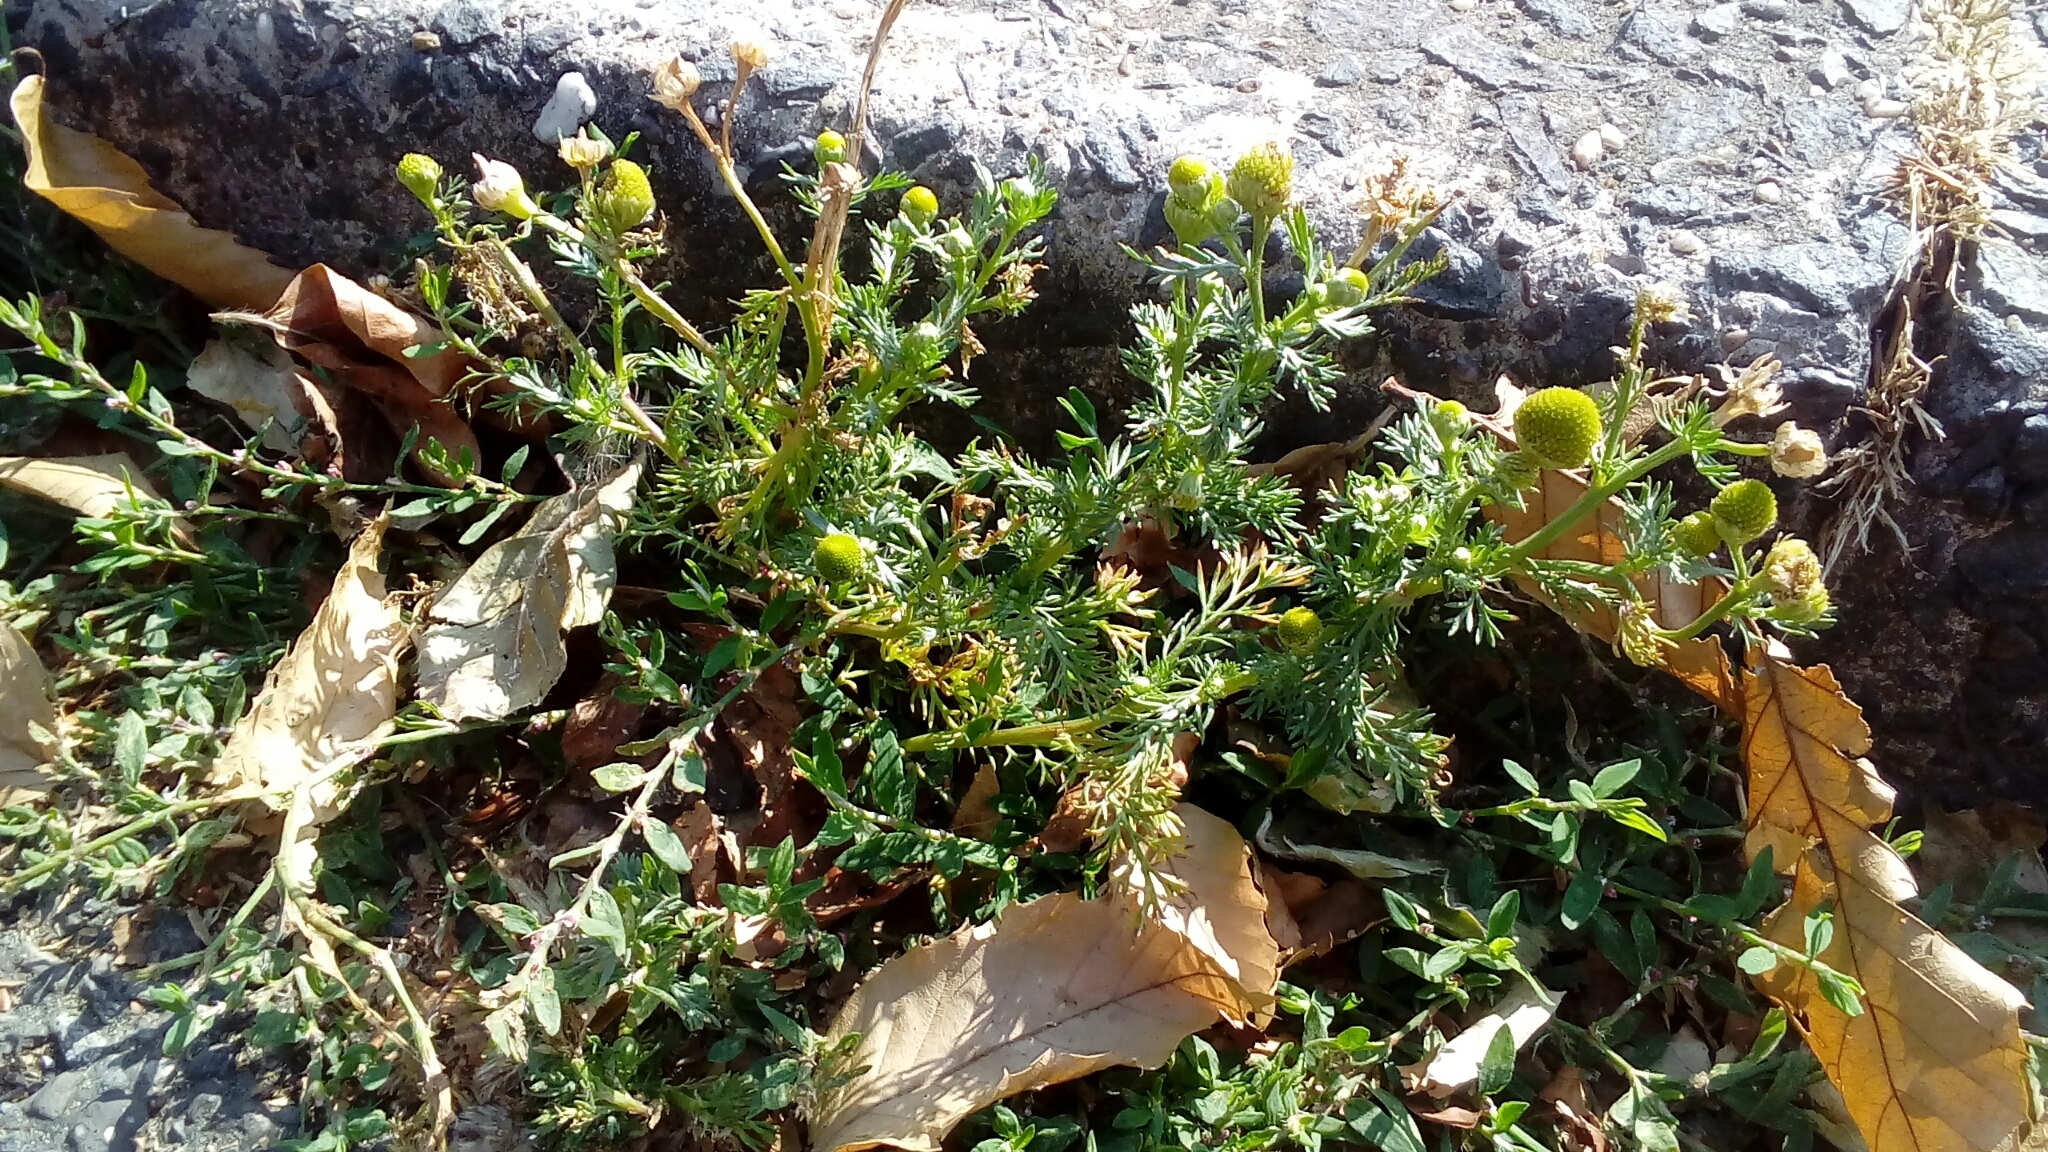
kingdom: Plantae
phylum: Tracheophyta
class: Magnoliopsida
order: Asterales
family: Asteraceae
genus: Matricaria
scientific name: Matricaria discoidea
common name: Disc mayweed
